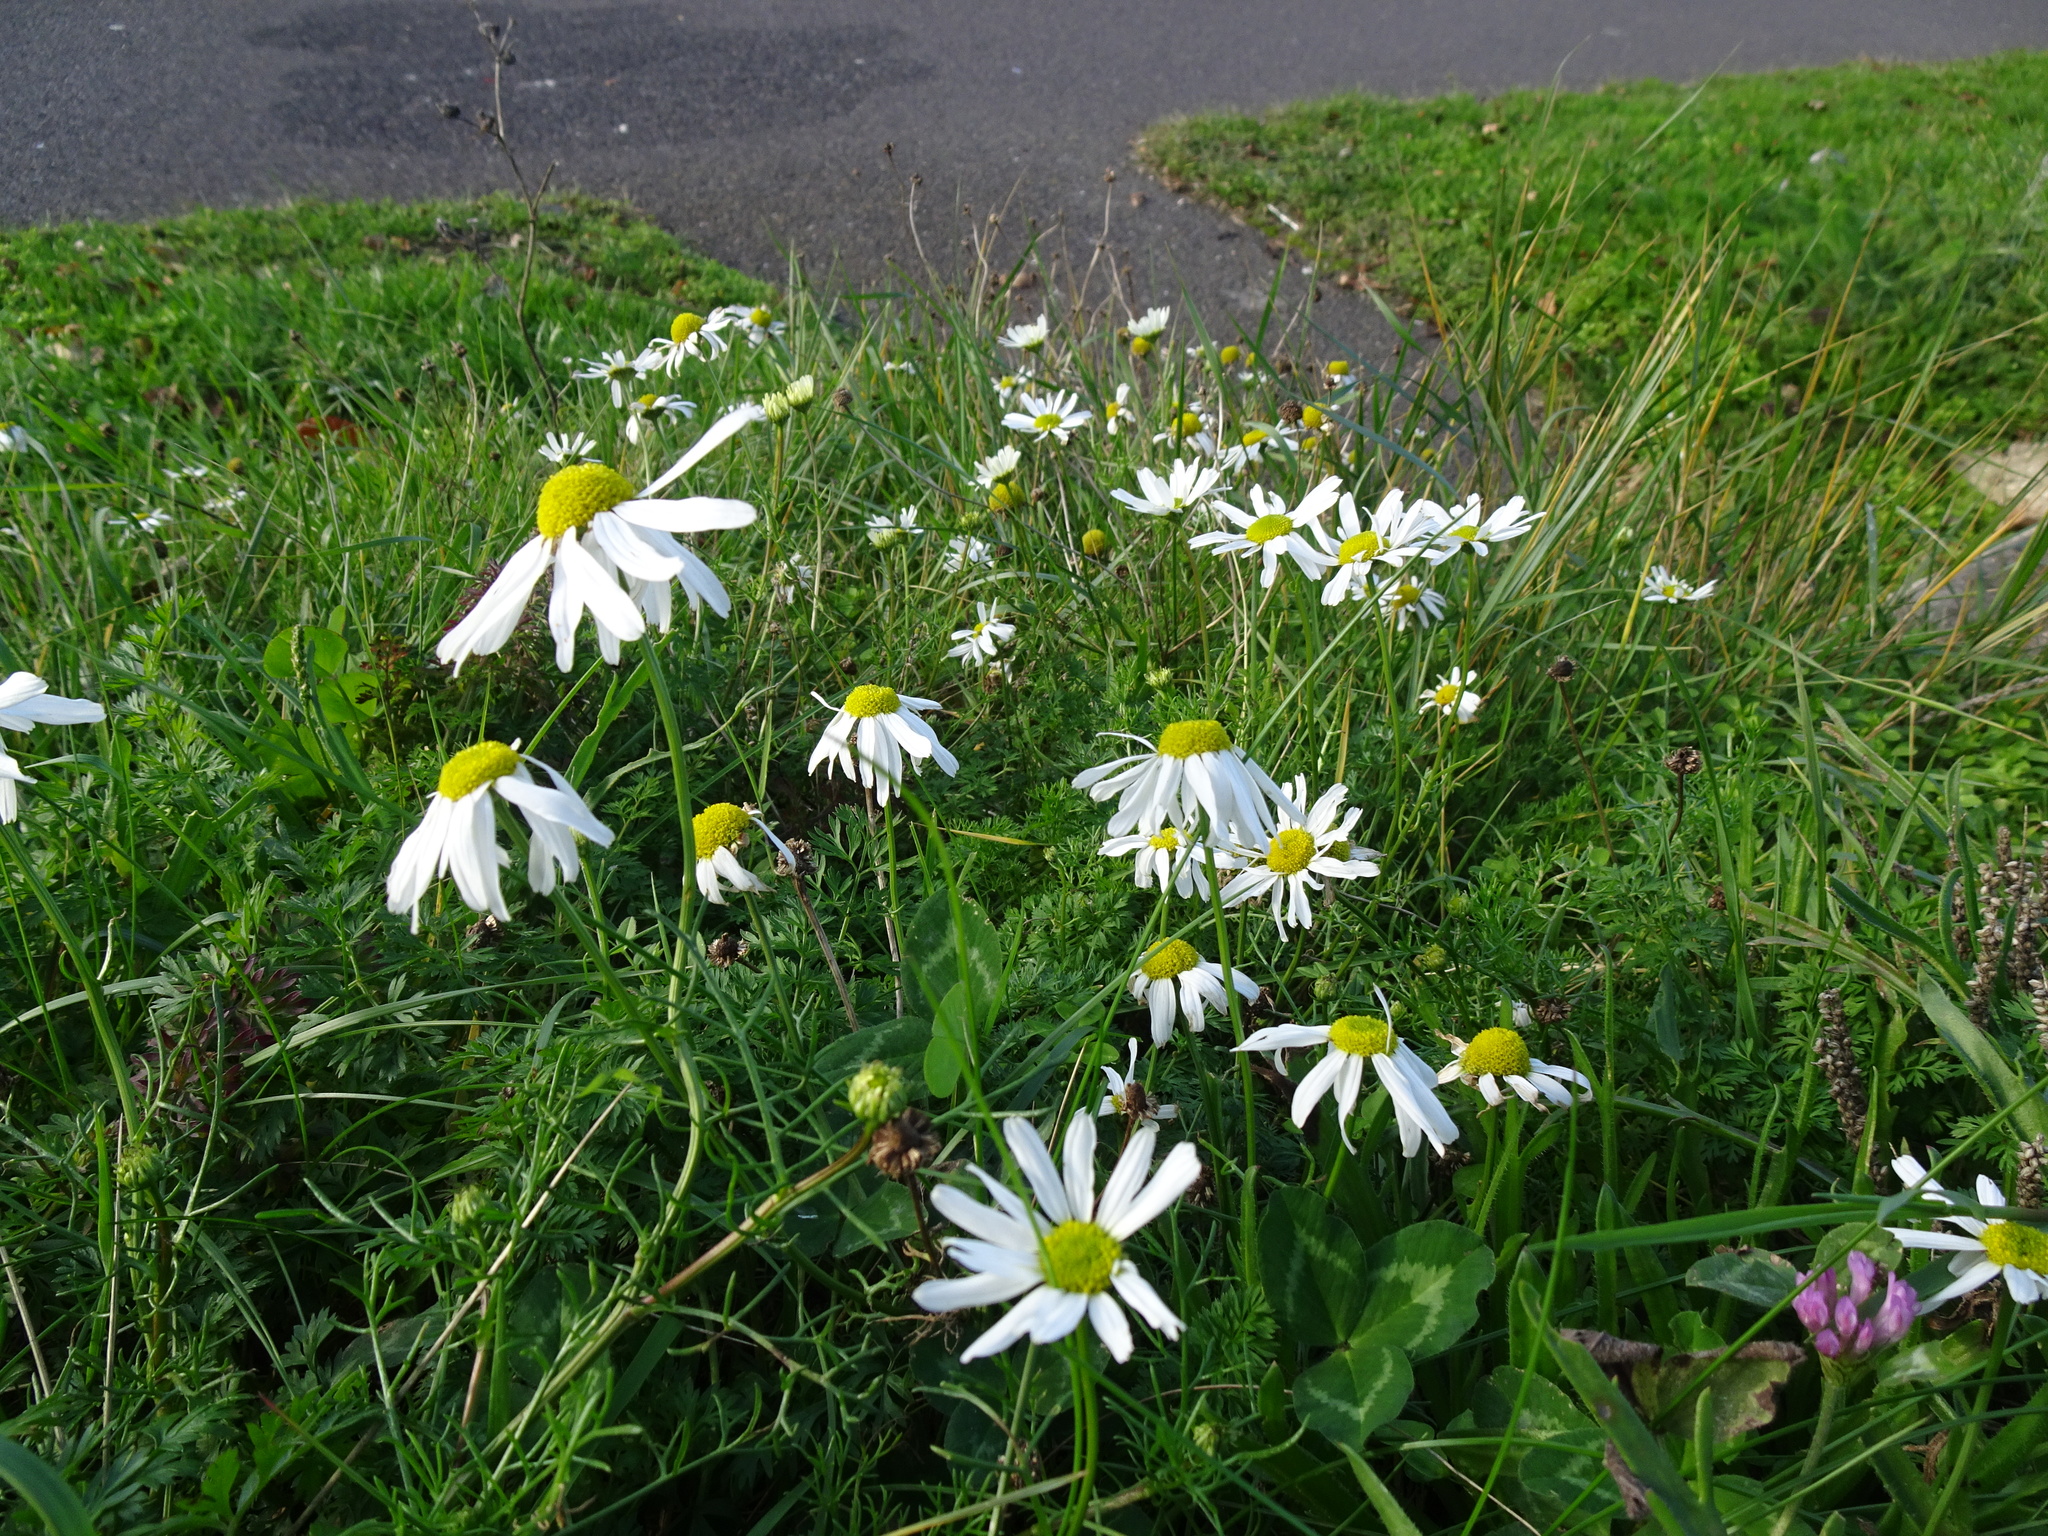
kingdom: Plantae
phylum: Tracheophyta
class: Magnoliopsida
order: Asterales
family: Asteraceae
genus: Tripleurospermum
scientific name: Tripleurospermum maritimum
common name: Sea mayweed
